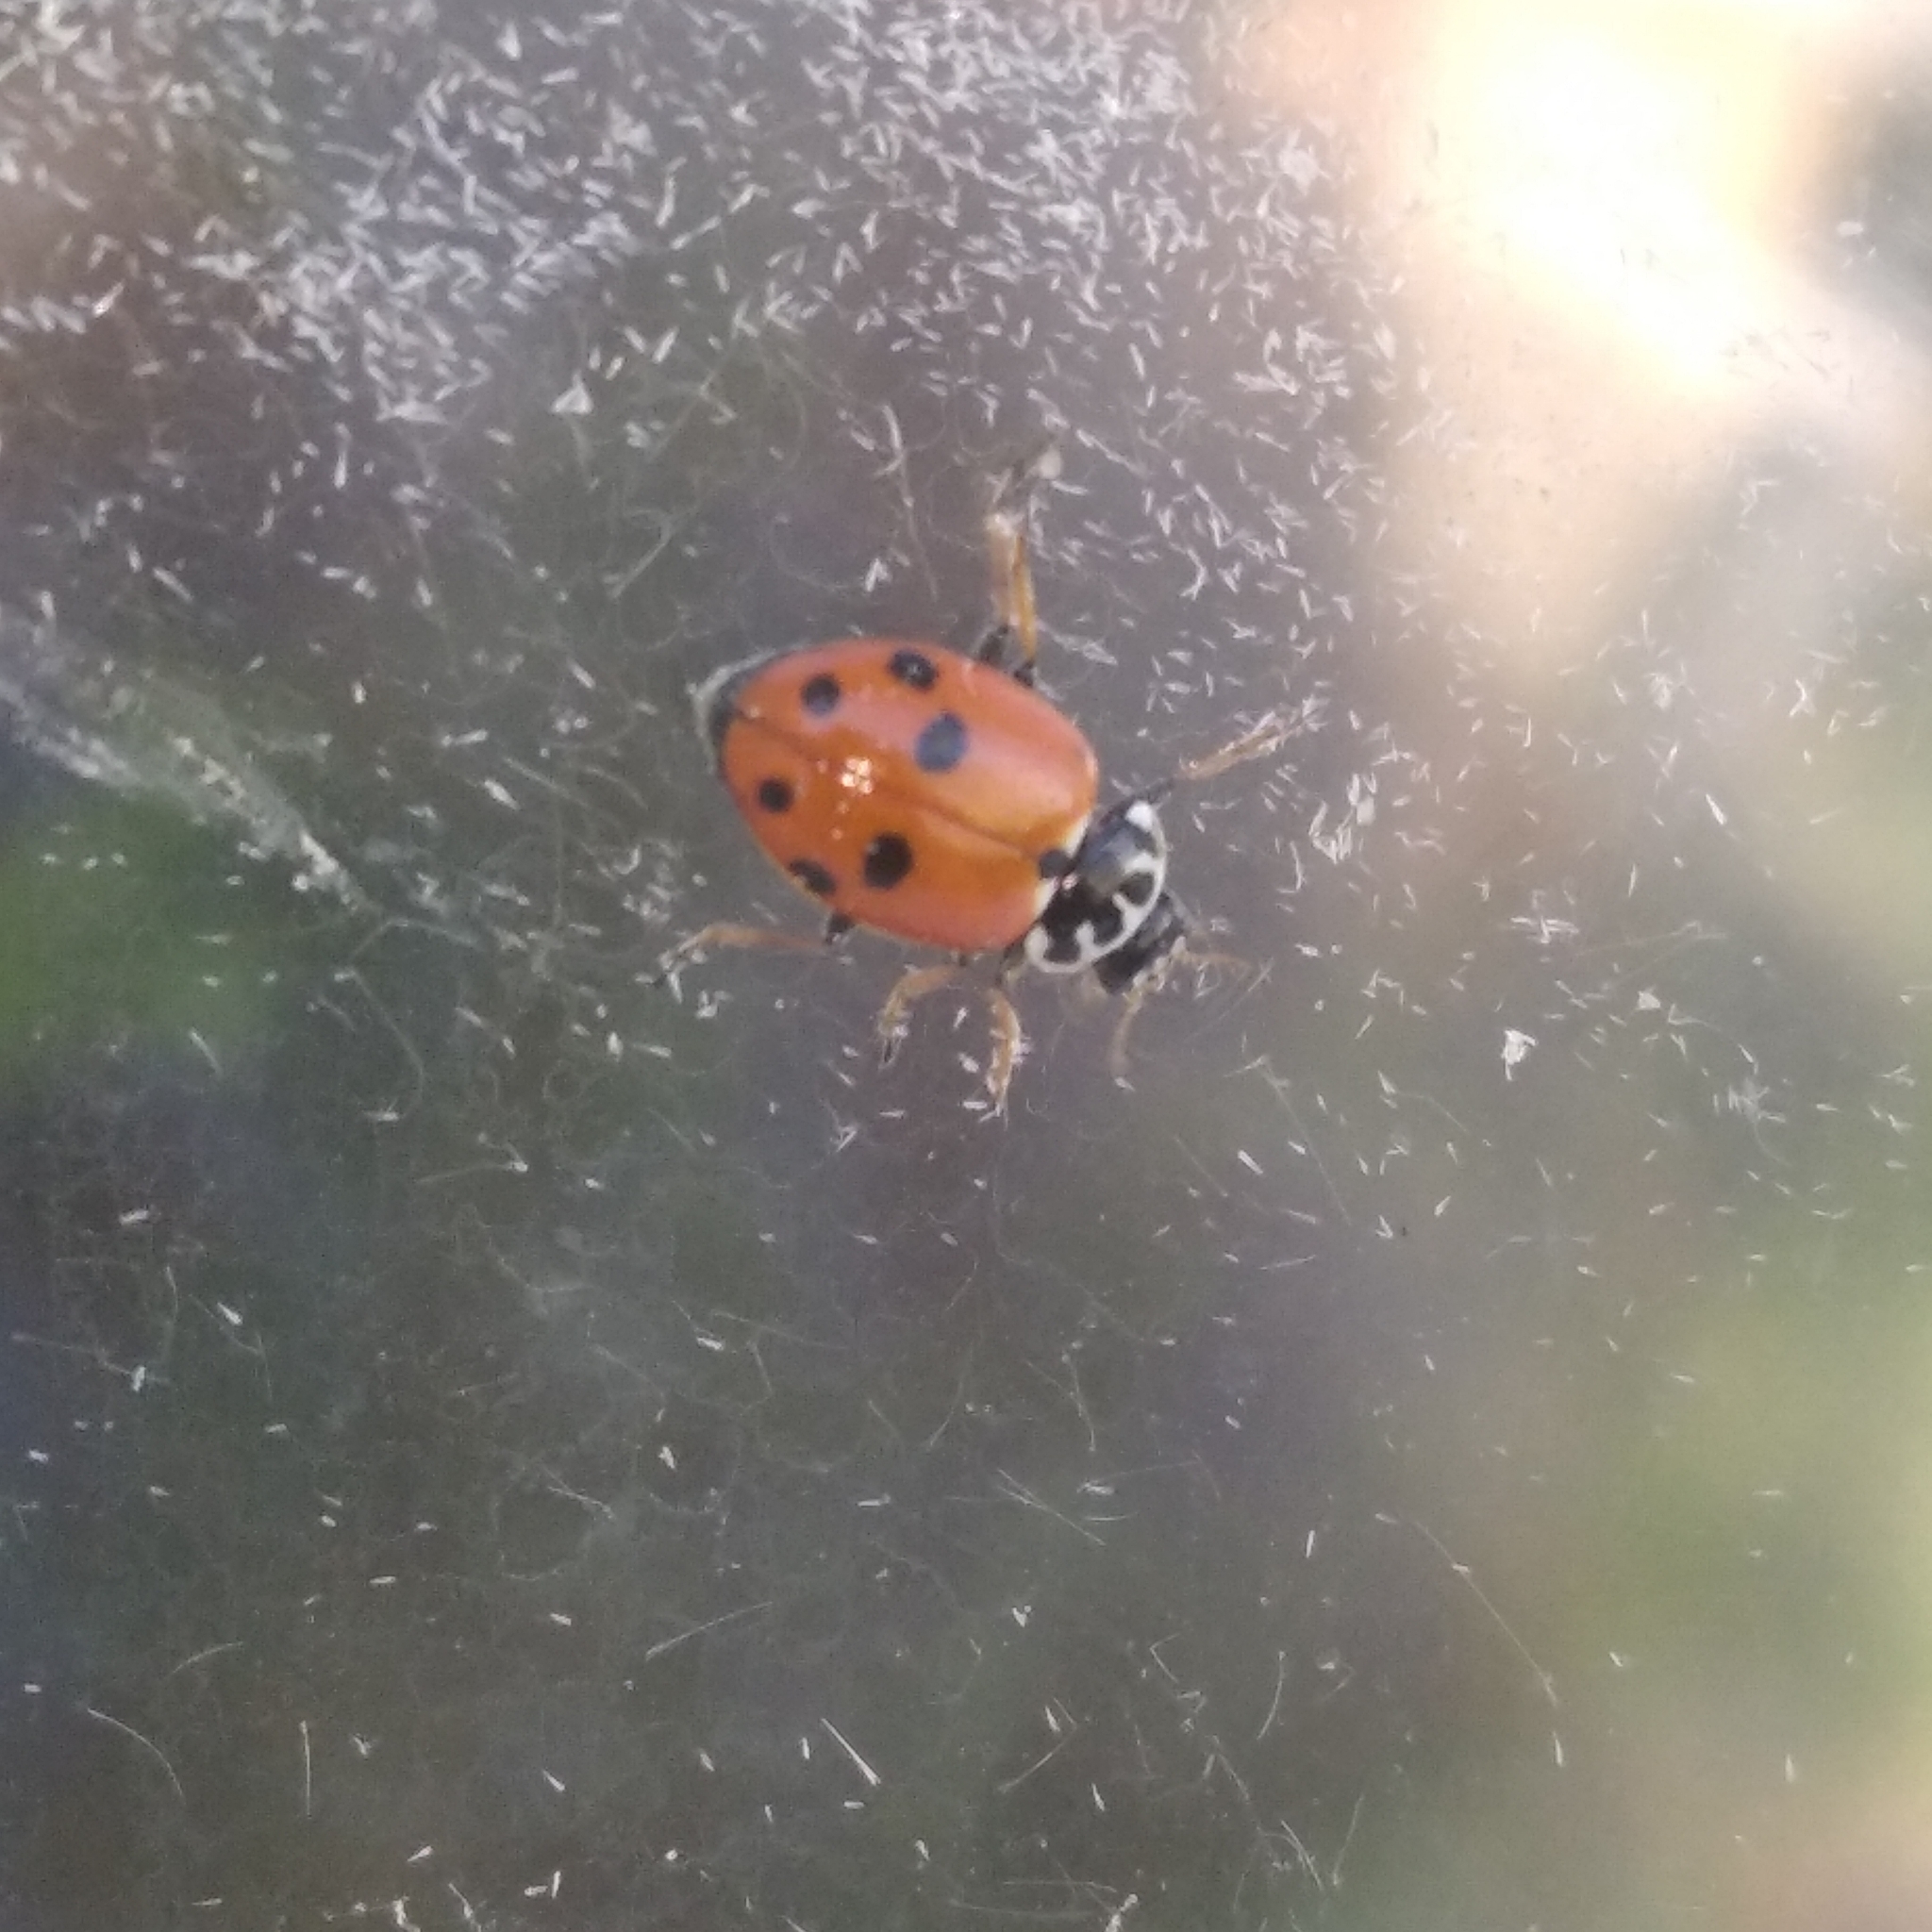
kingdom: Animalia
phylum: Arthropoda
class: Insecta
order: Coleoptera
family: Coccinellidae
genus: Hippodamia
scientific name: Hippodamia variegata
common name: Ladybird beetle
